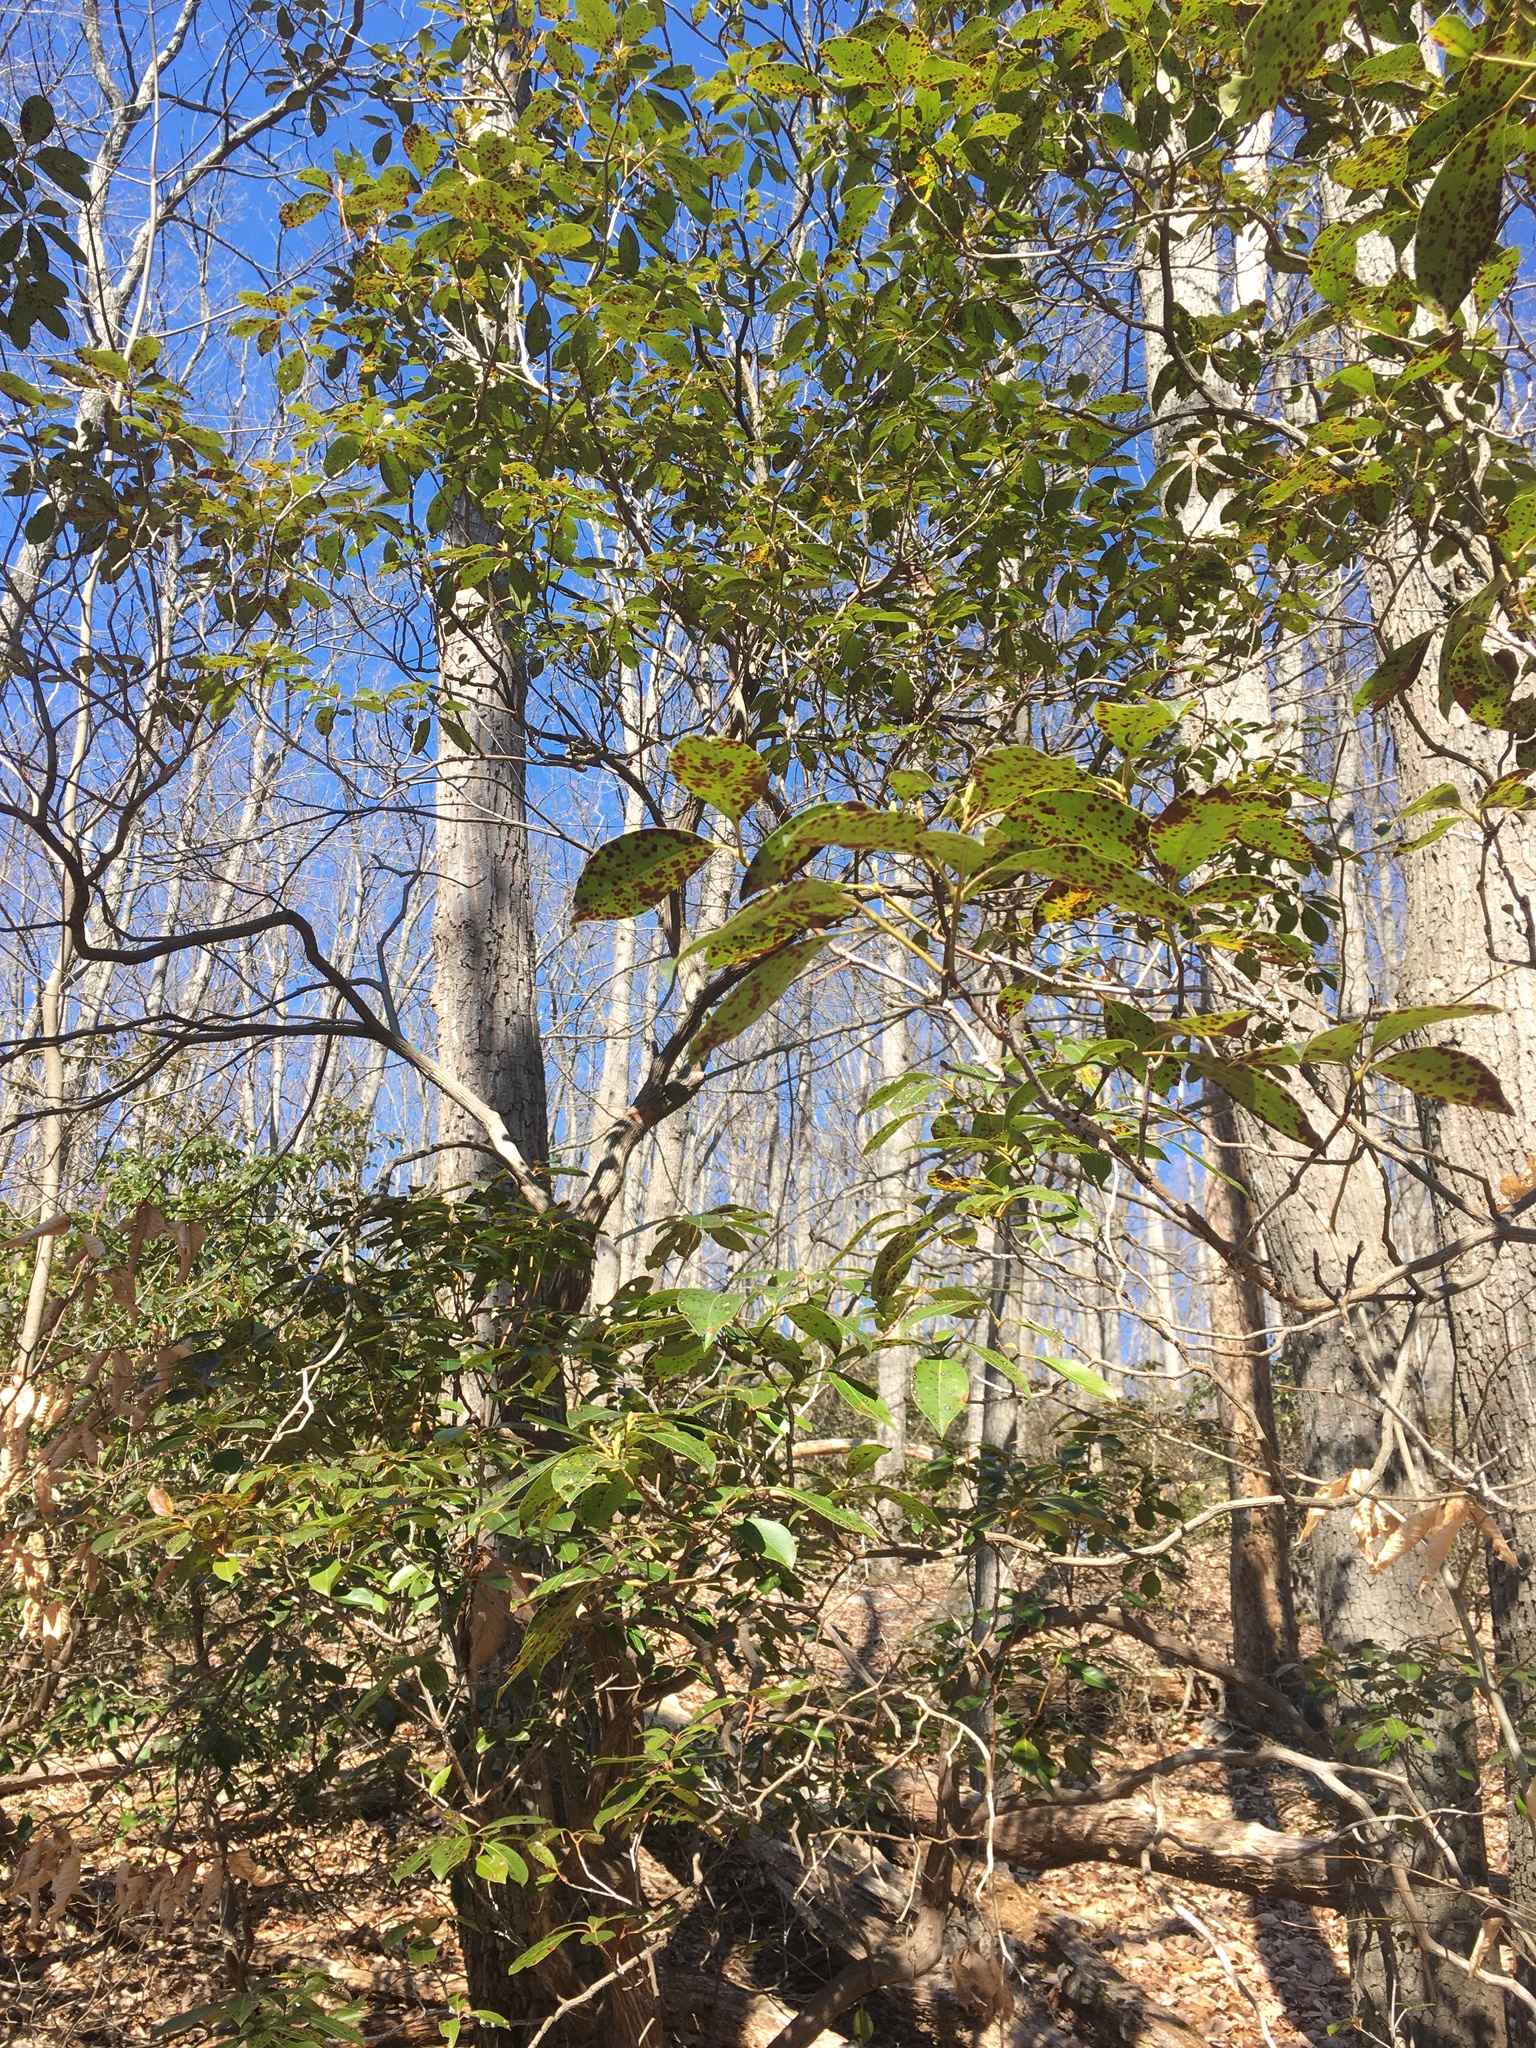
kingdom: Plantae
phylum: Tracheophyta
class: Magnoliopsida
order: Ericales
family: Ericaceae
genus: Kalmia
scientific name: Kalmia latifolia
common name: Mountain-laurel
